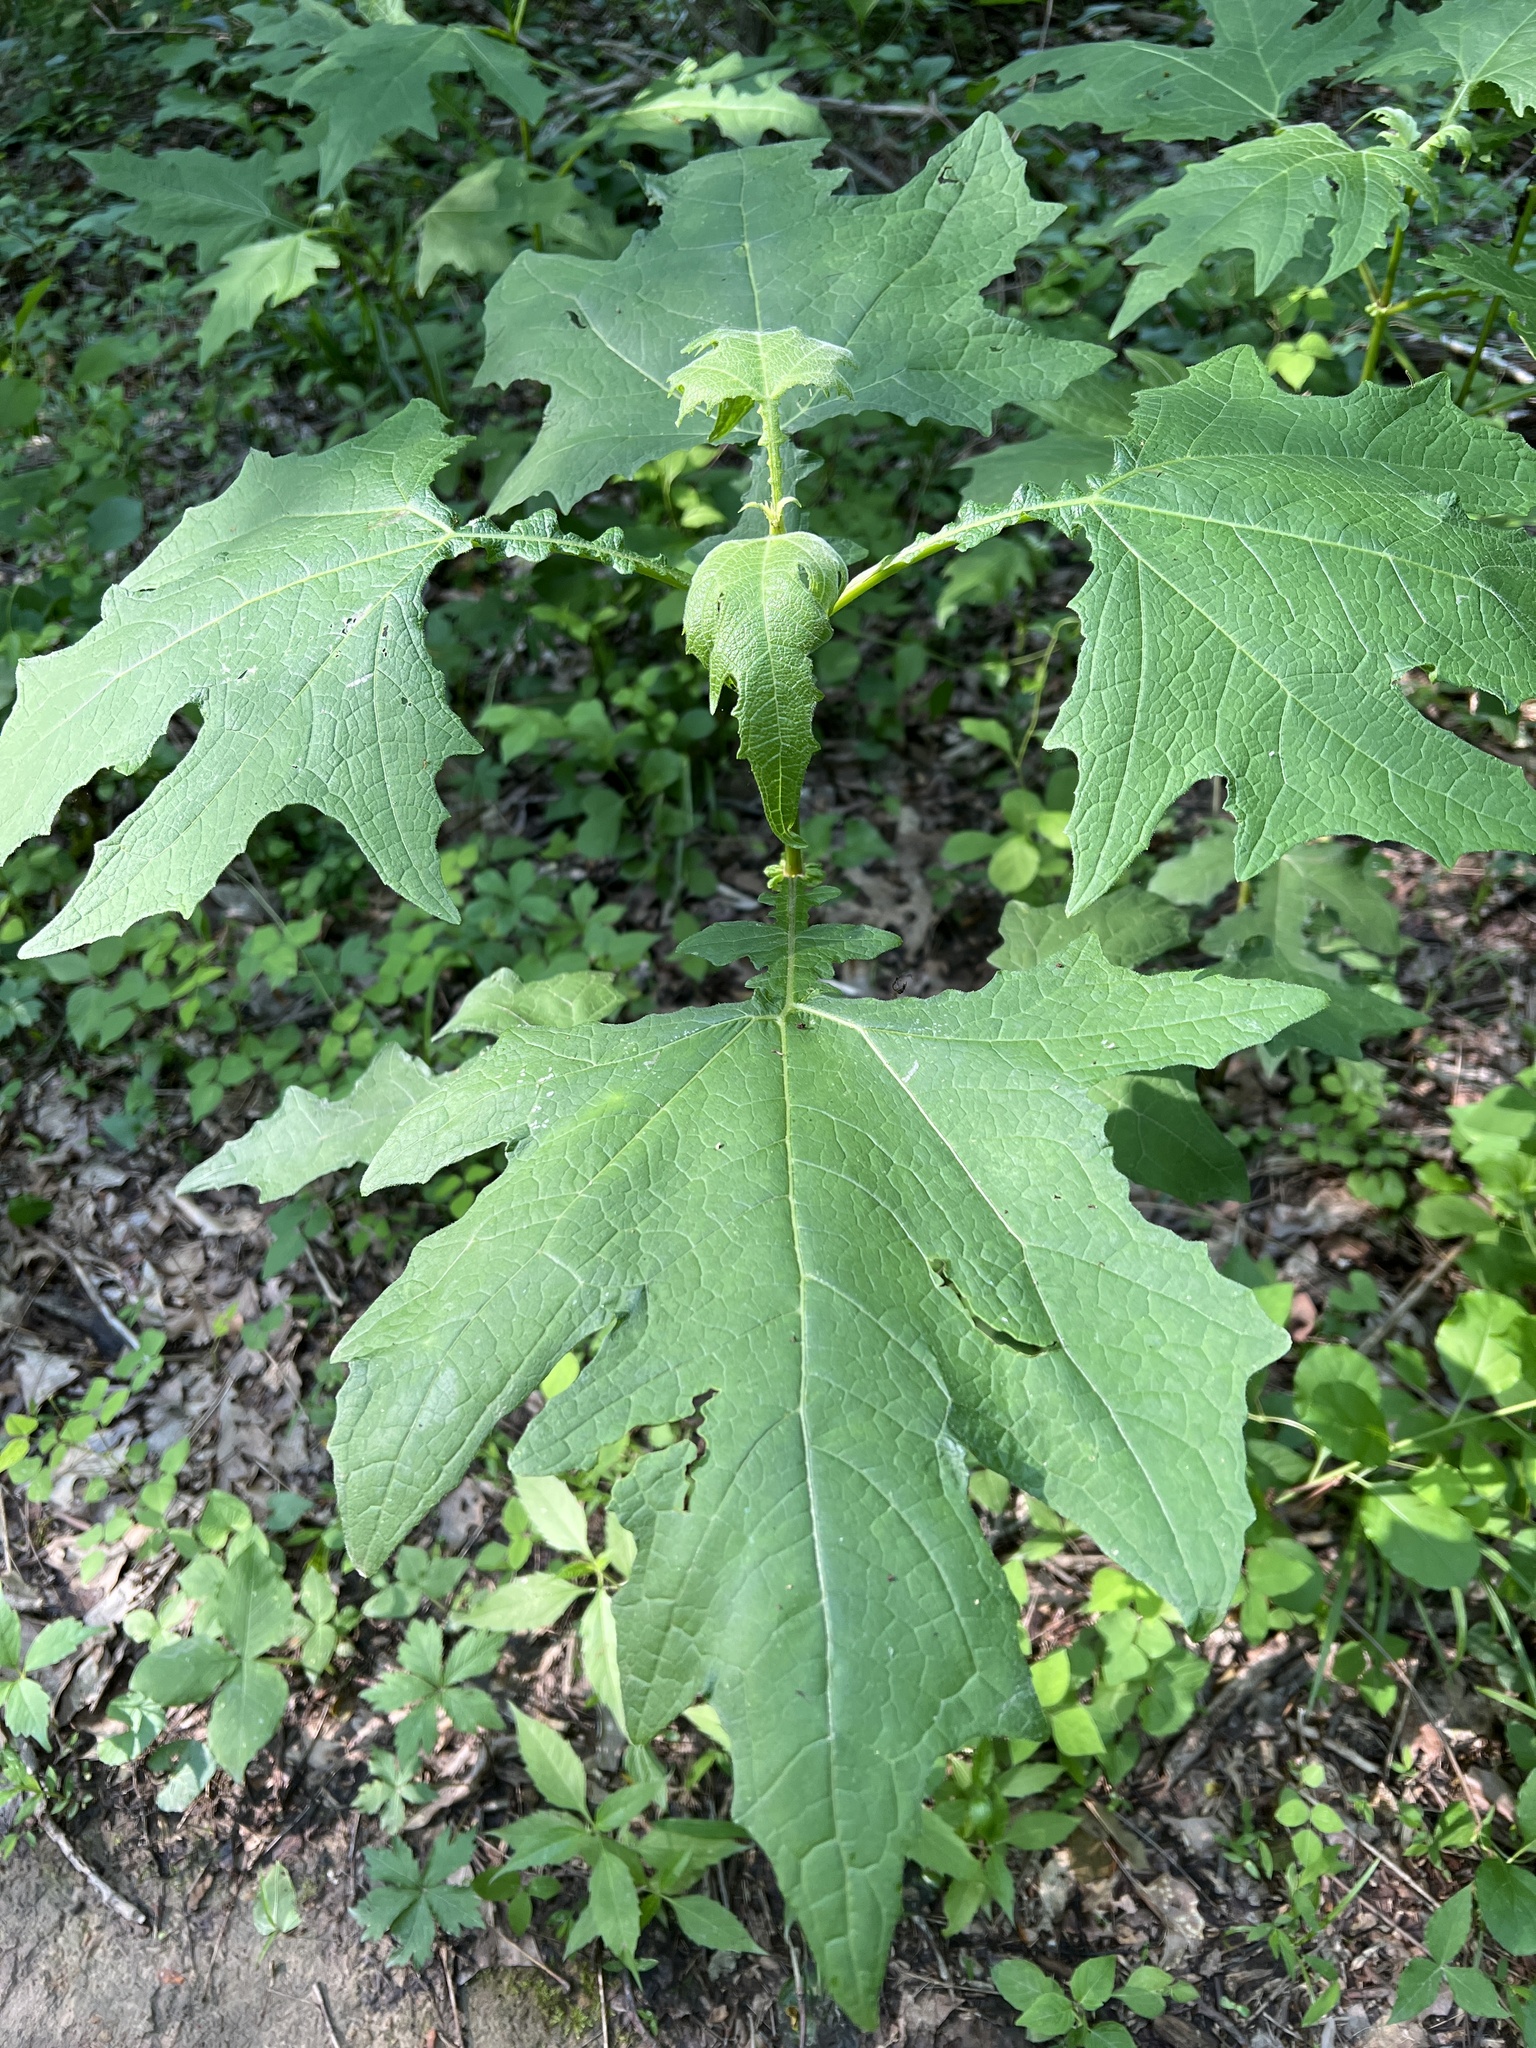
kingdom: Plantae
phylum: Tracheophyta
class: Magnoliopsida
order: Asterales
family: Asteraceae
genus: Smallanthus
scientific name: Smallanthus uvedalia
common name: Bear's-foot
